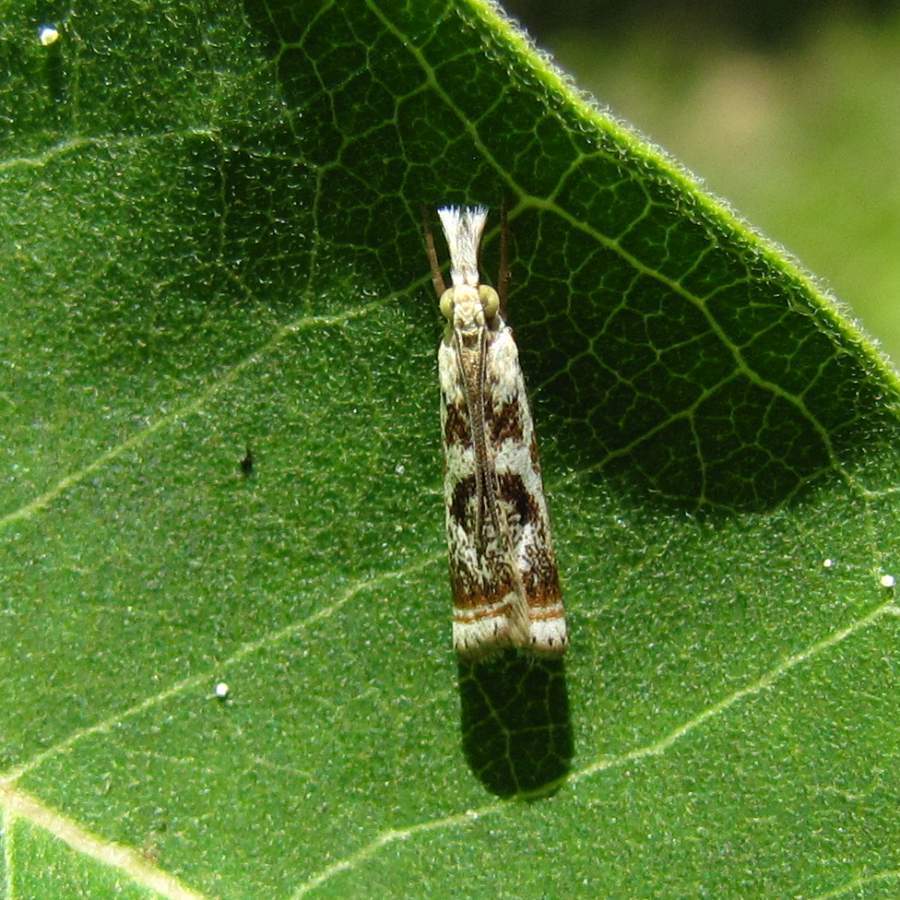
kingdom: Animalia
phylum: Arthropoda
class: Insecta
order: Lepidoptera
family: Crambidae
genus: Microcrambus
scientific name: Microcrambus elegans
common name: Elegant grass-veneer
